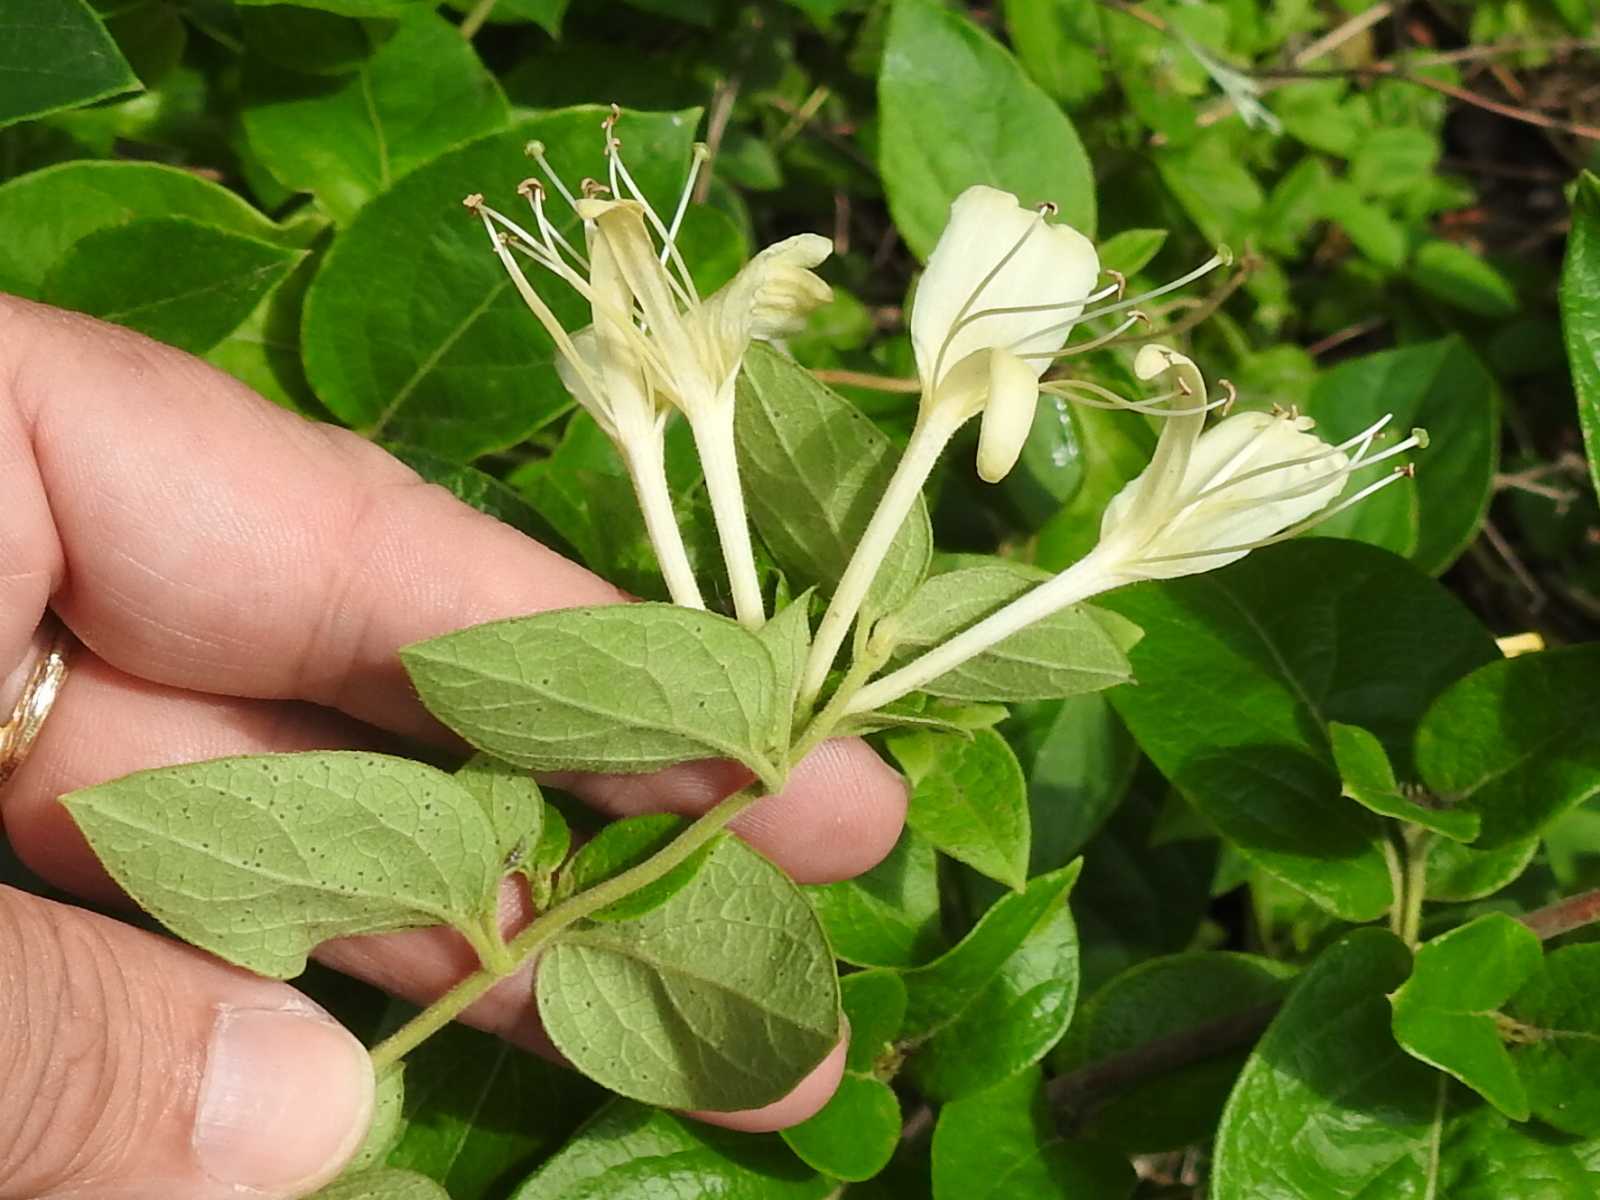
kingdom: Plantae
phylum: Tracheophyta
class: Magnoliopsida
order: Dipsacales
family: Caprifoliaceae
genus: Lonicera
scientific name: Lonicera japonica
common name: Japanese honeysuckle
